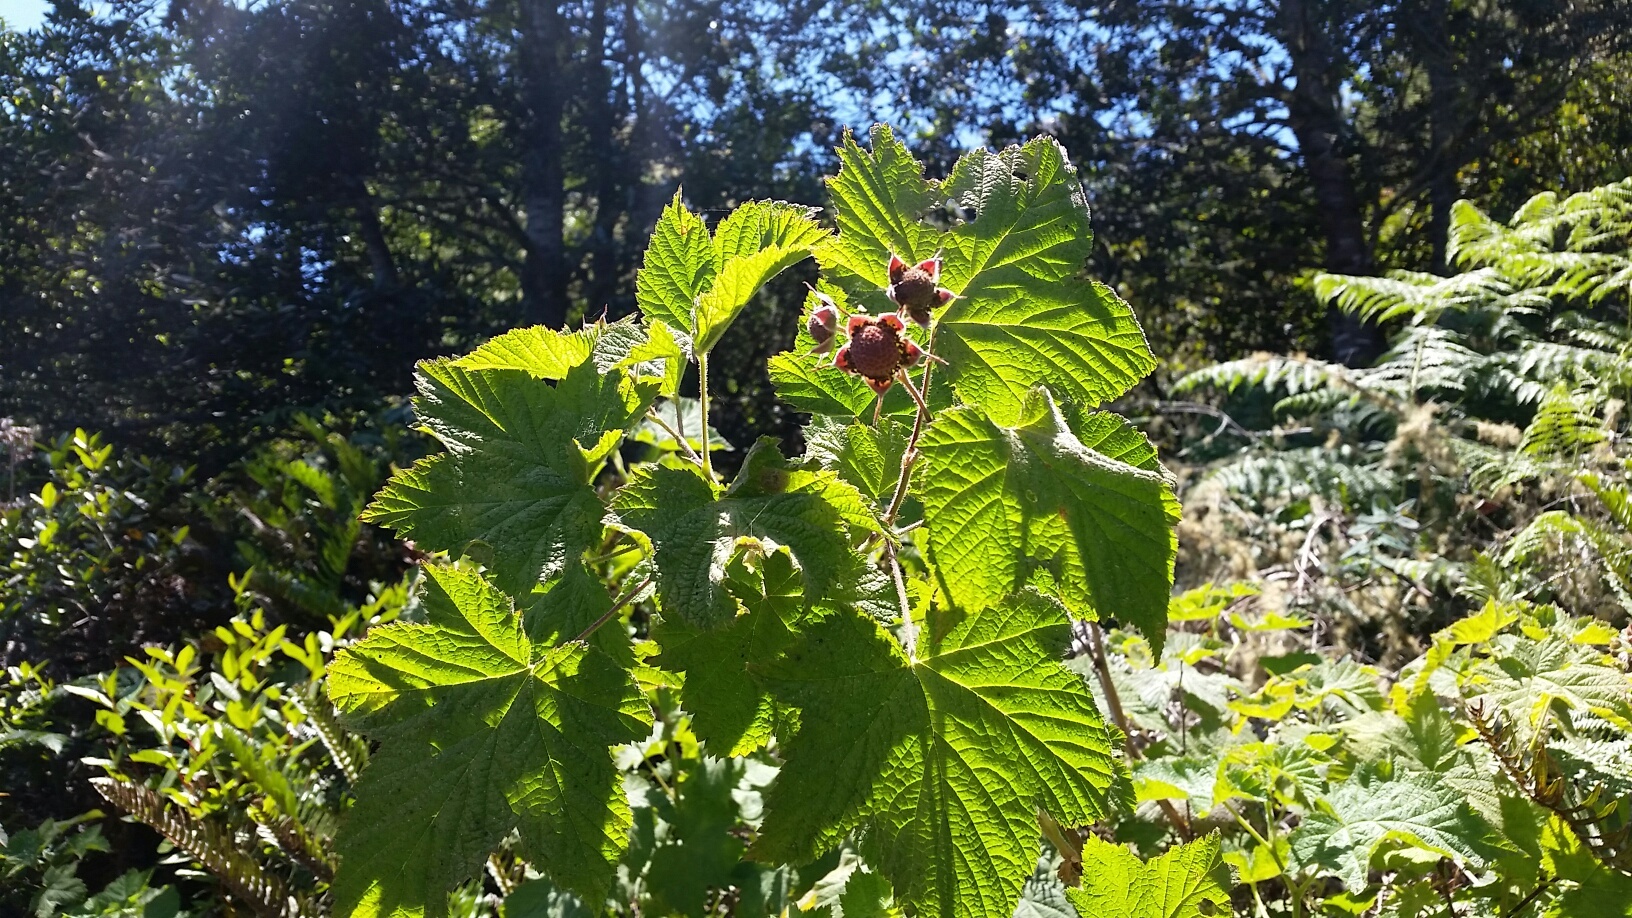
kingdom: Plantae
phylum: Tracheophyta
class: Magnoliopsida
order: Rosales
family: Rosaceae
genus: Rubus
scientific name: Rubus parviflorus
